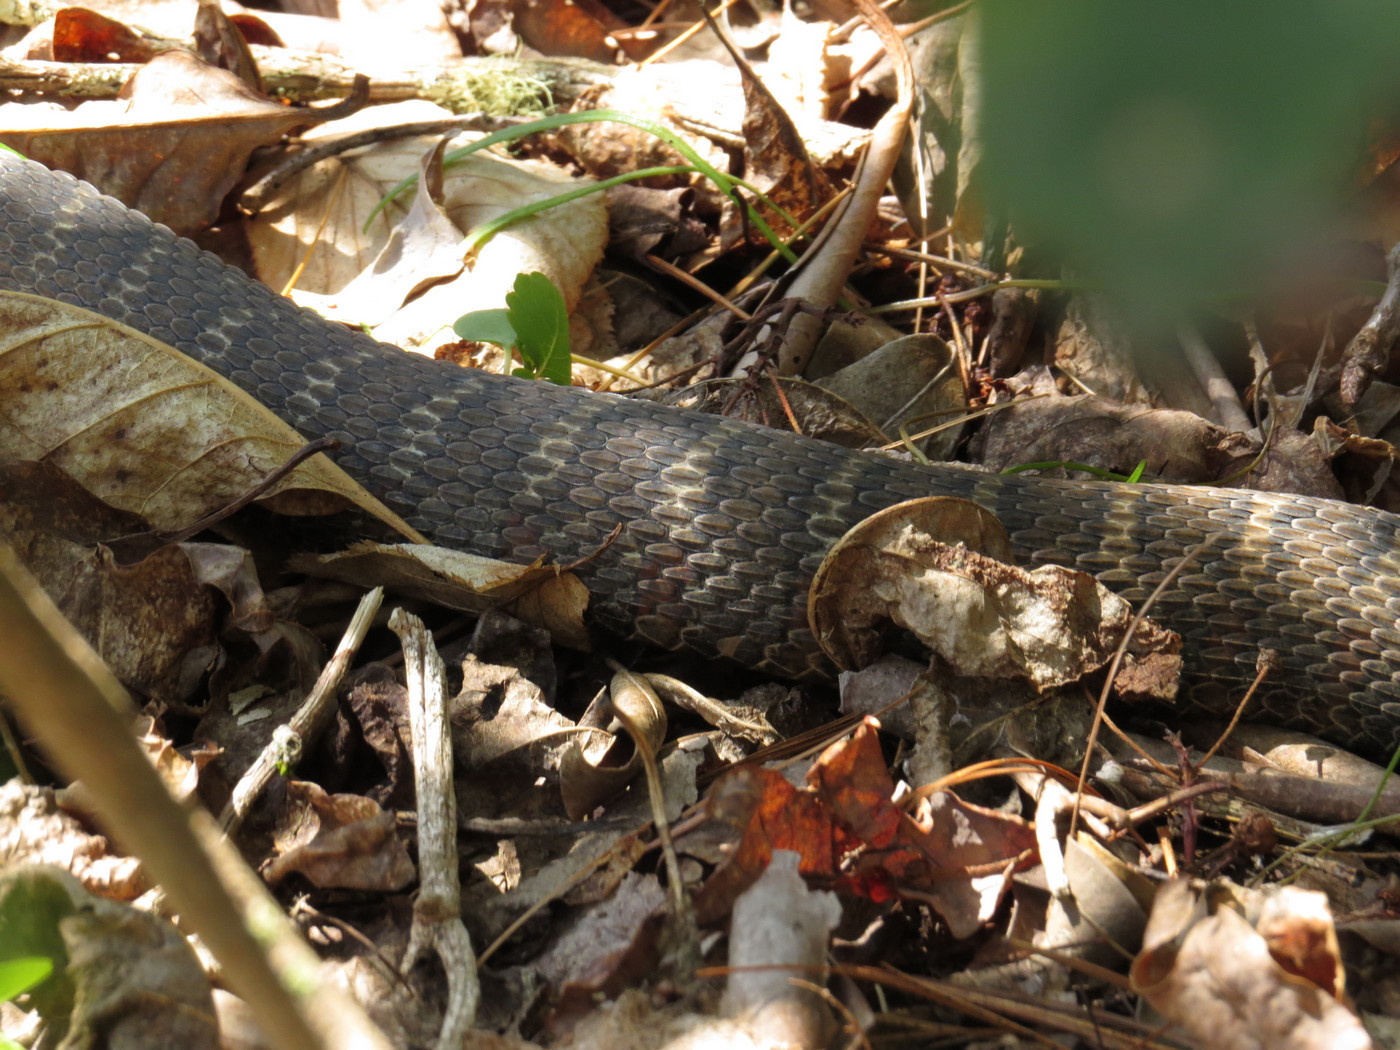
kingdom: Animalia
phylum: Chordata
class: Squamata
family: Colubridae
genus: Nerodia
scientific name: Nerodia sipedon
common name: Northern water snake
